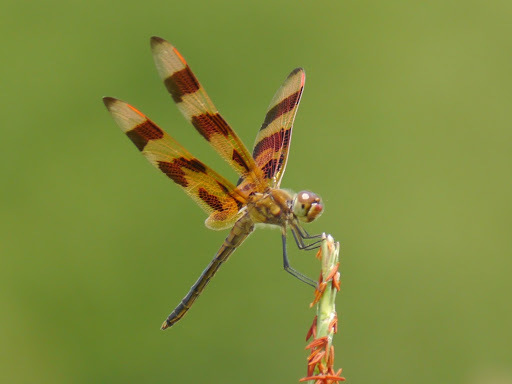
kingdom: Animalia
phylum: Arthropoda
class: Insecta
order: Odonata
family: Libellulidae
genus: Celithemis
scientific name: Celithemis eponina
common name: Halloween pennant
